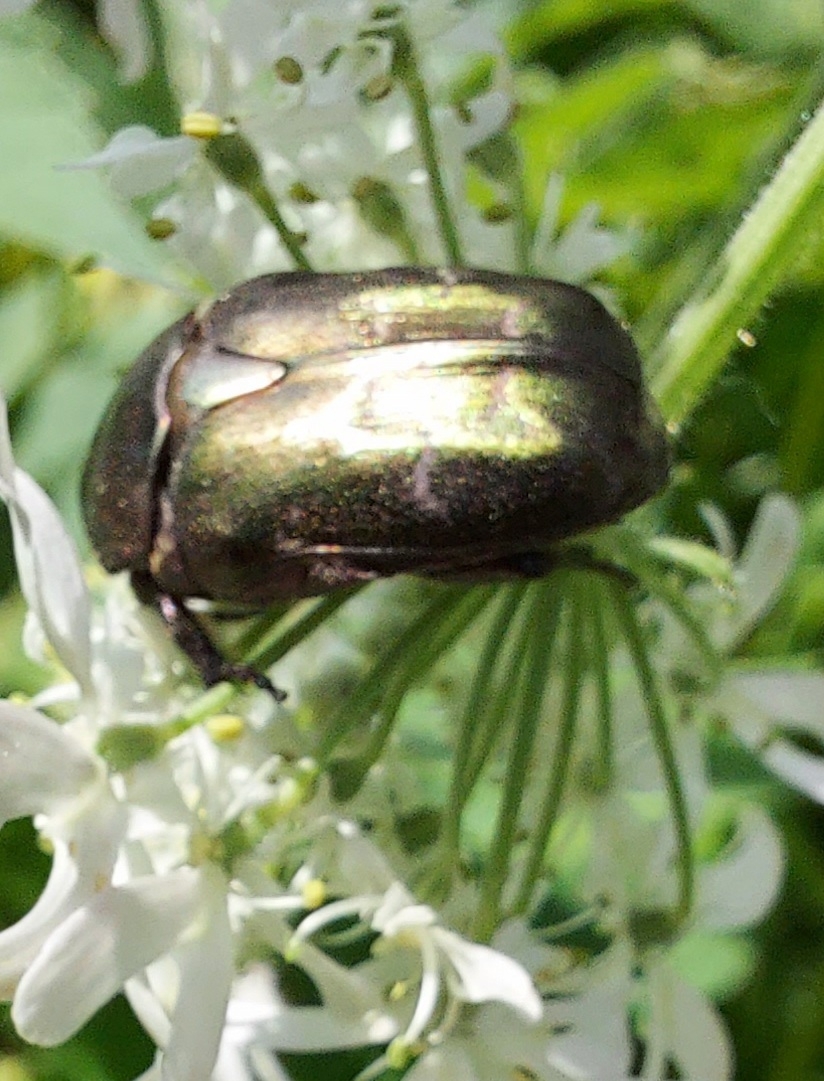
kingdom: Animalia
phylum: Arthropoda
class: Insecta
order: Coleoptera
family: Scarabaeidae
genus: Protaetia
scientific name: Protaetia cuprea
